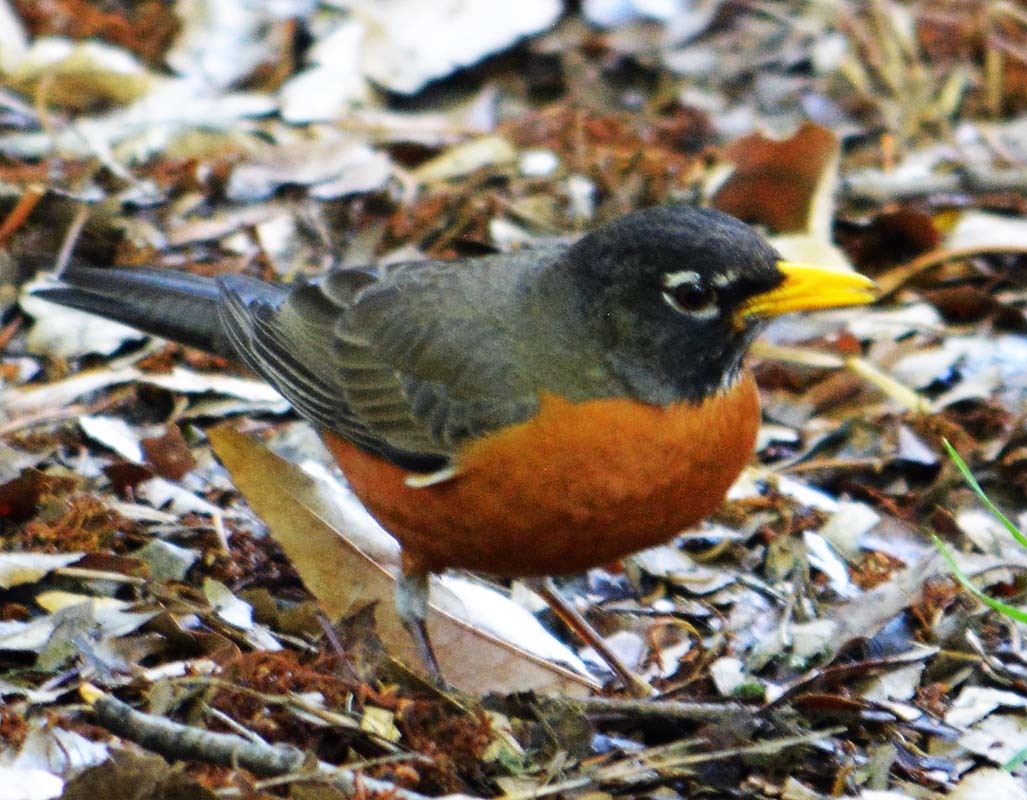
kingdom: Animalia
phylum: Chordata
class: Aves
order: Passeriformes
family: Turdidae
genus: Turdus
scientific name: Turdus migratorius
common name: American robin
